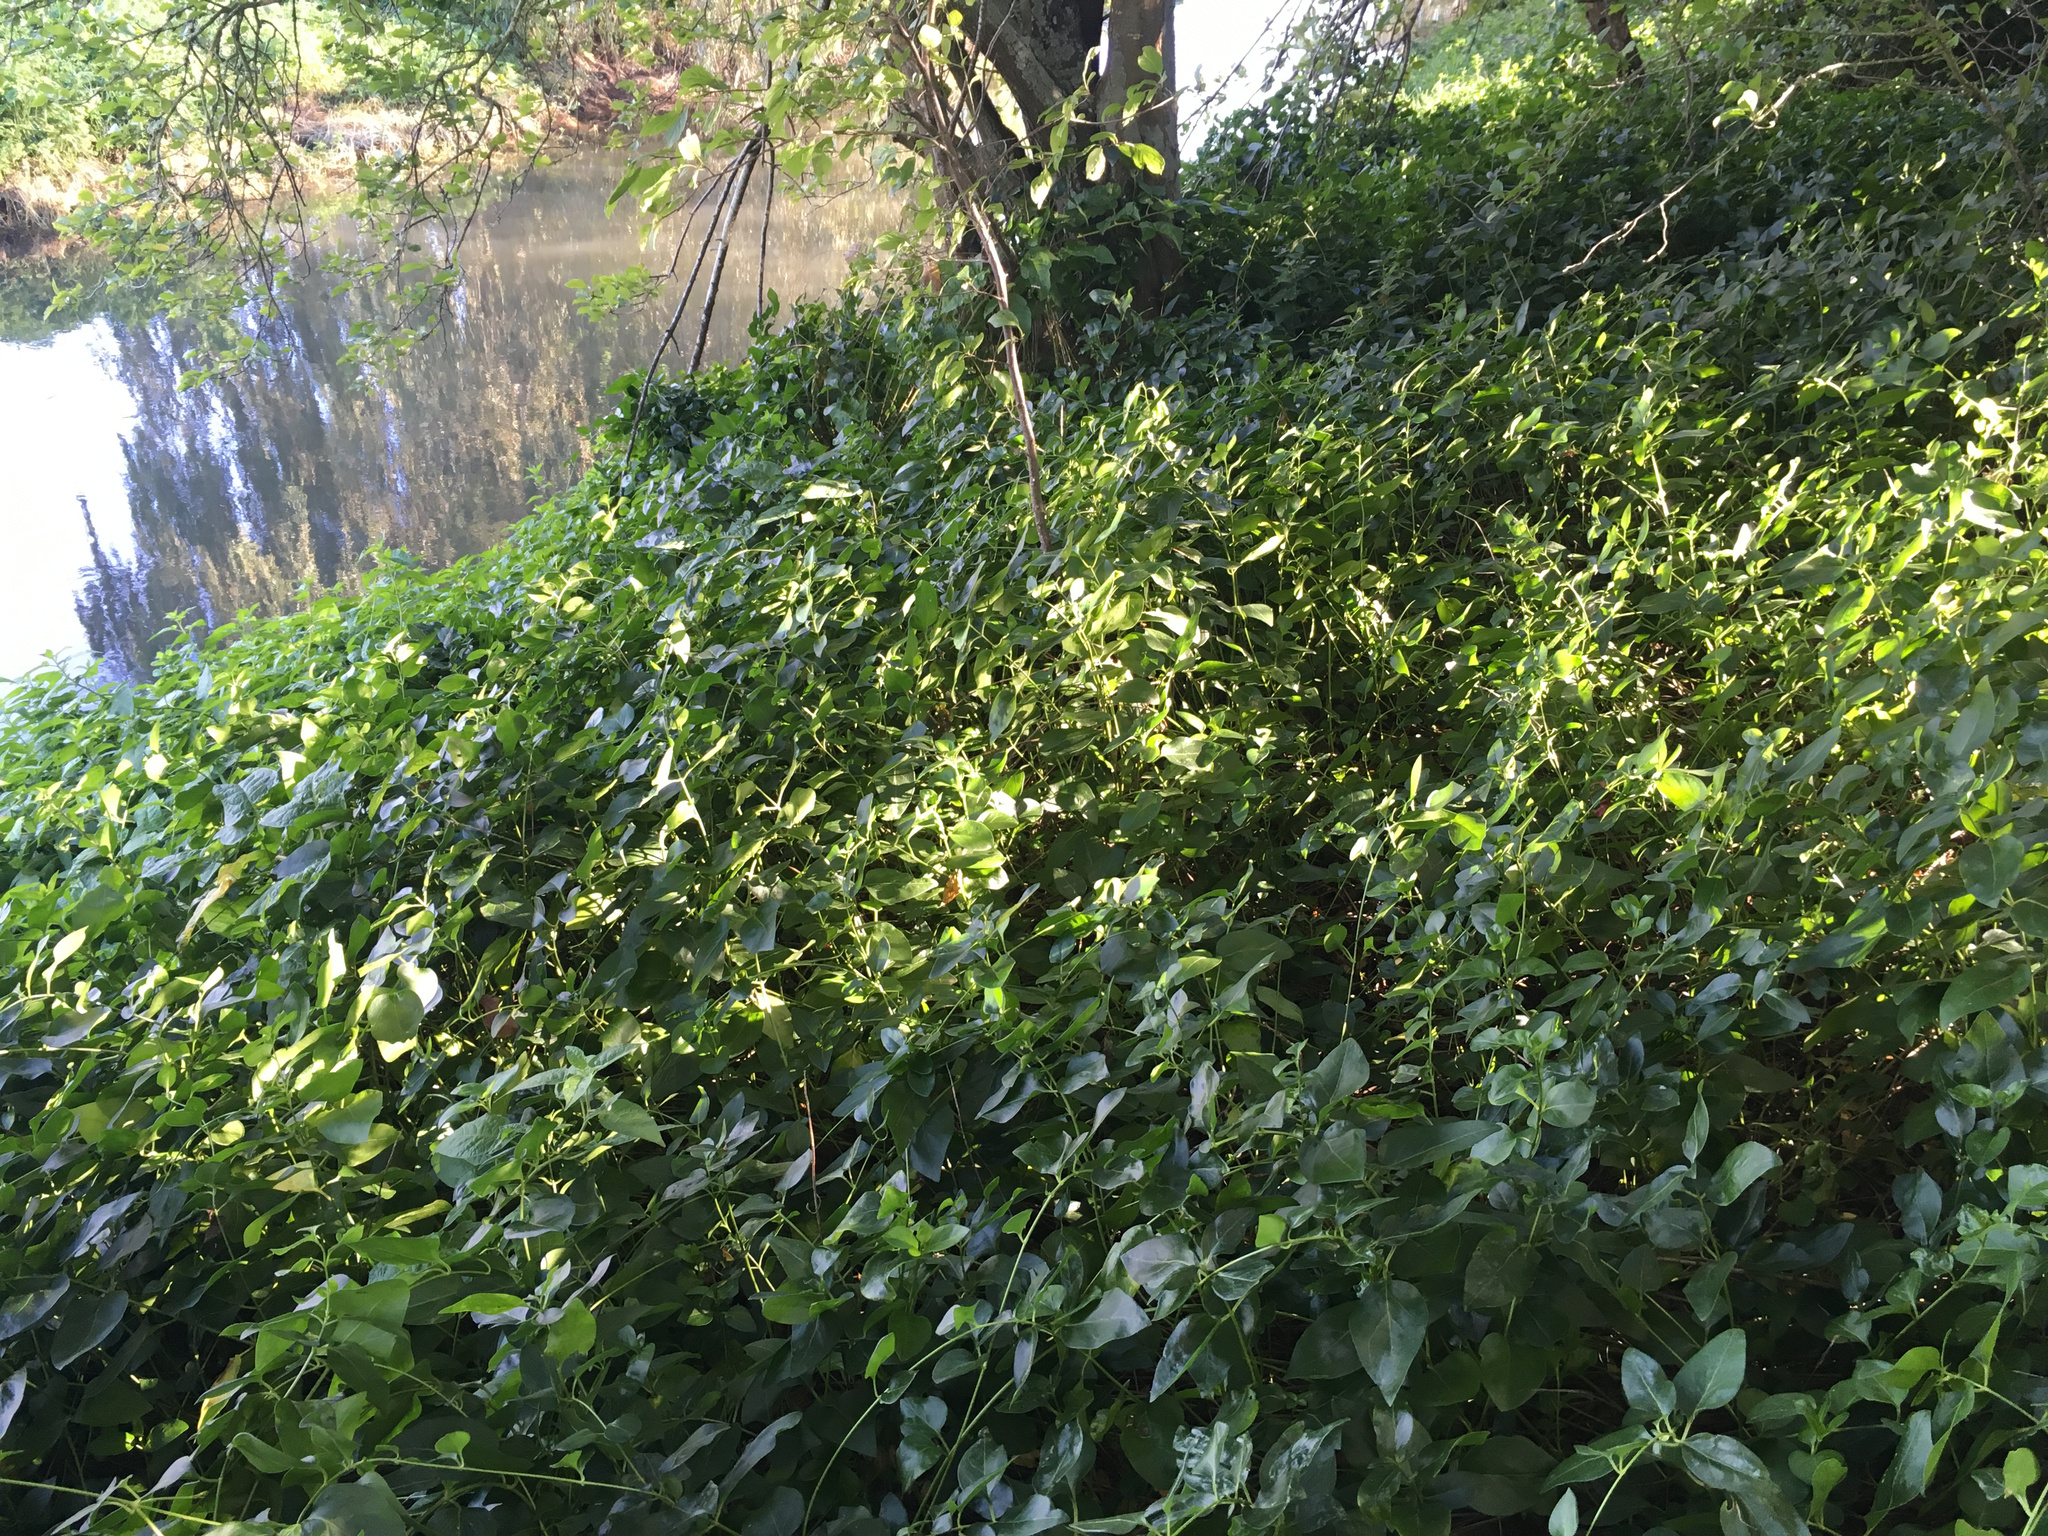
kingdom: Plantae
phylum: Tracheophyta
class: Magnoliopsida
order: Gentianales
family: Apocynaceae
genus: Vinca
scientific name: Vinca major
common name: Greater periwinkle
